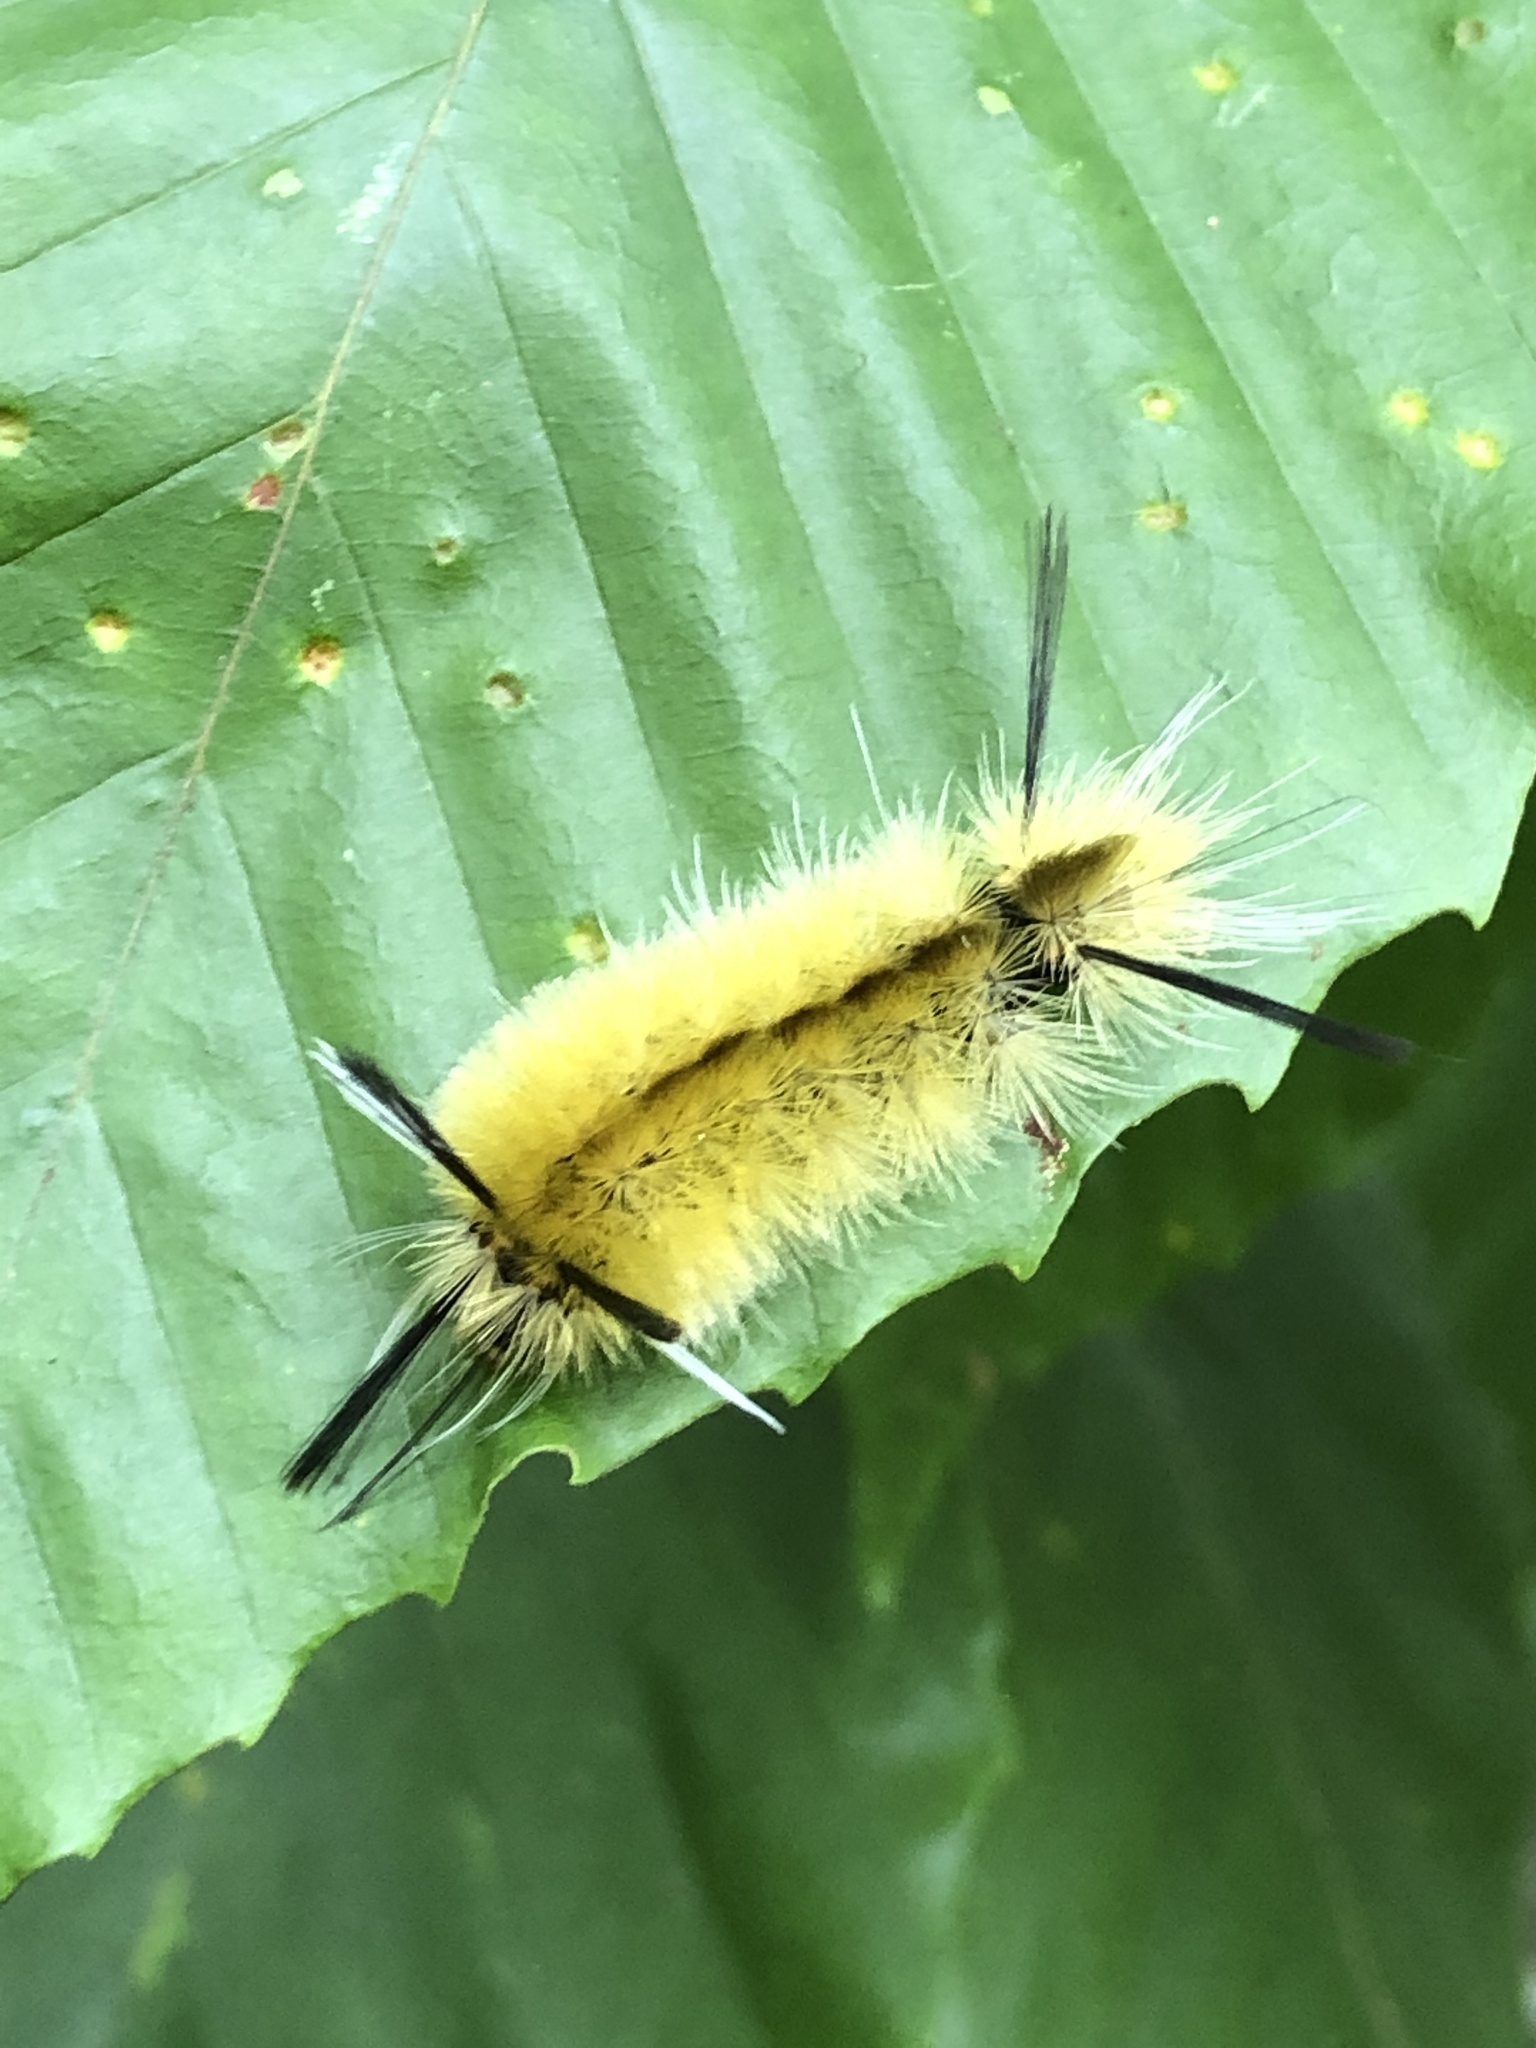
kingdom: Animalia
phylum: Arthropoda
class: Insecta
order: Lepidoptera
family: Erebidae
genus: Halysidota
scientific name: Halysidota tessellaris
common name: Banded tussock moth
